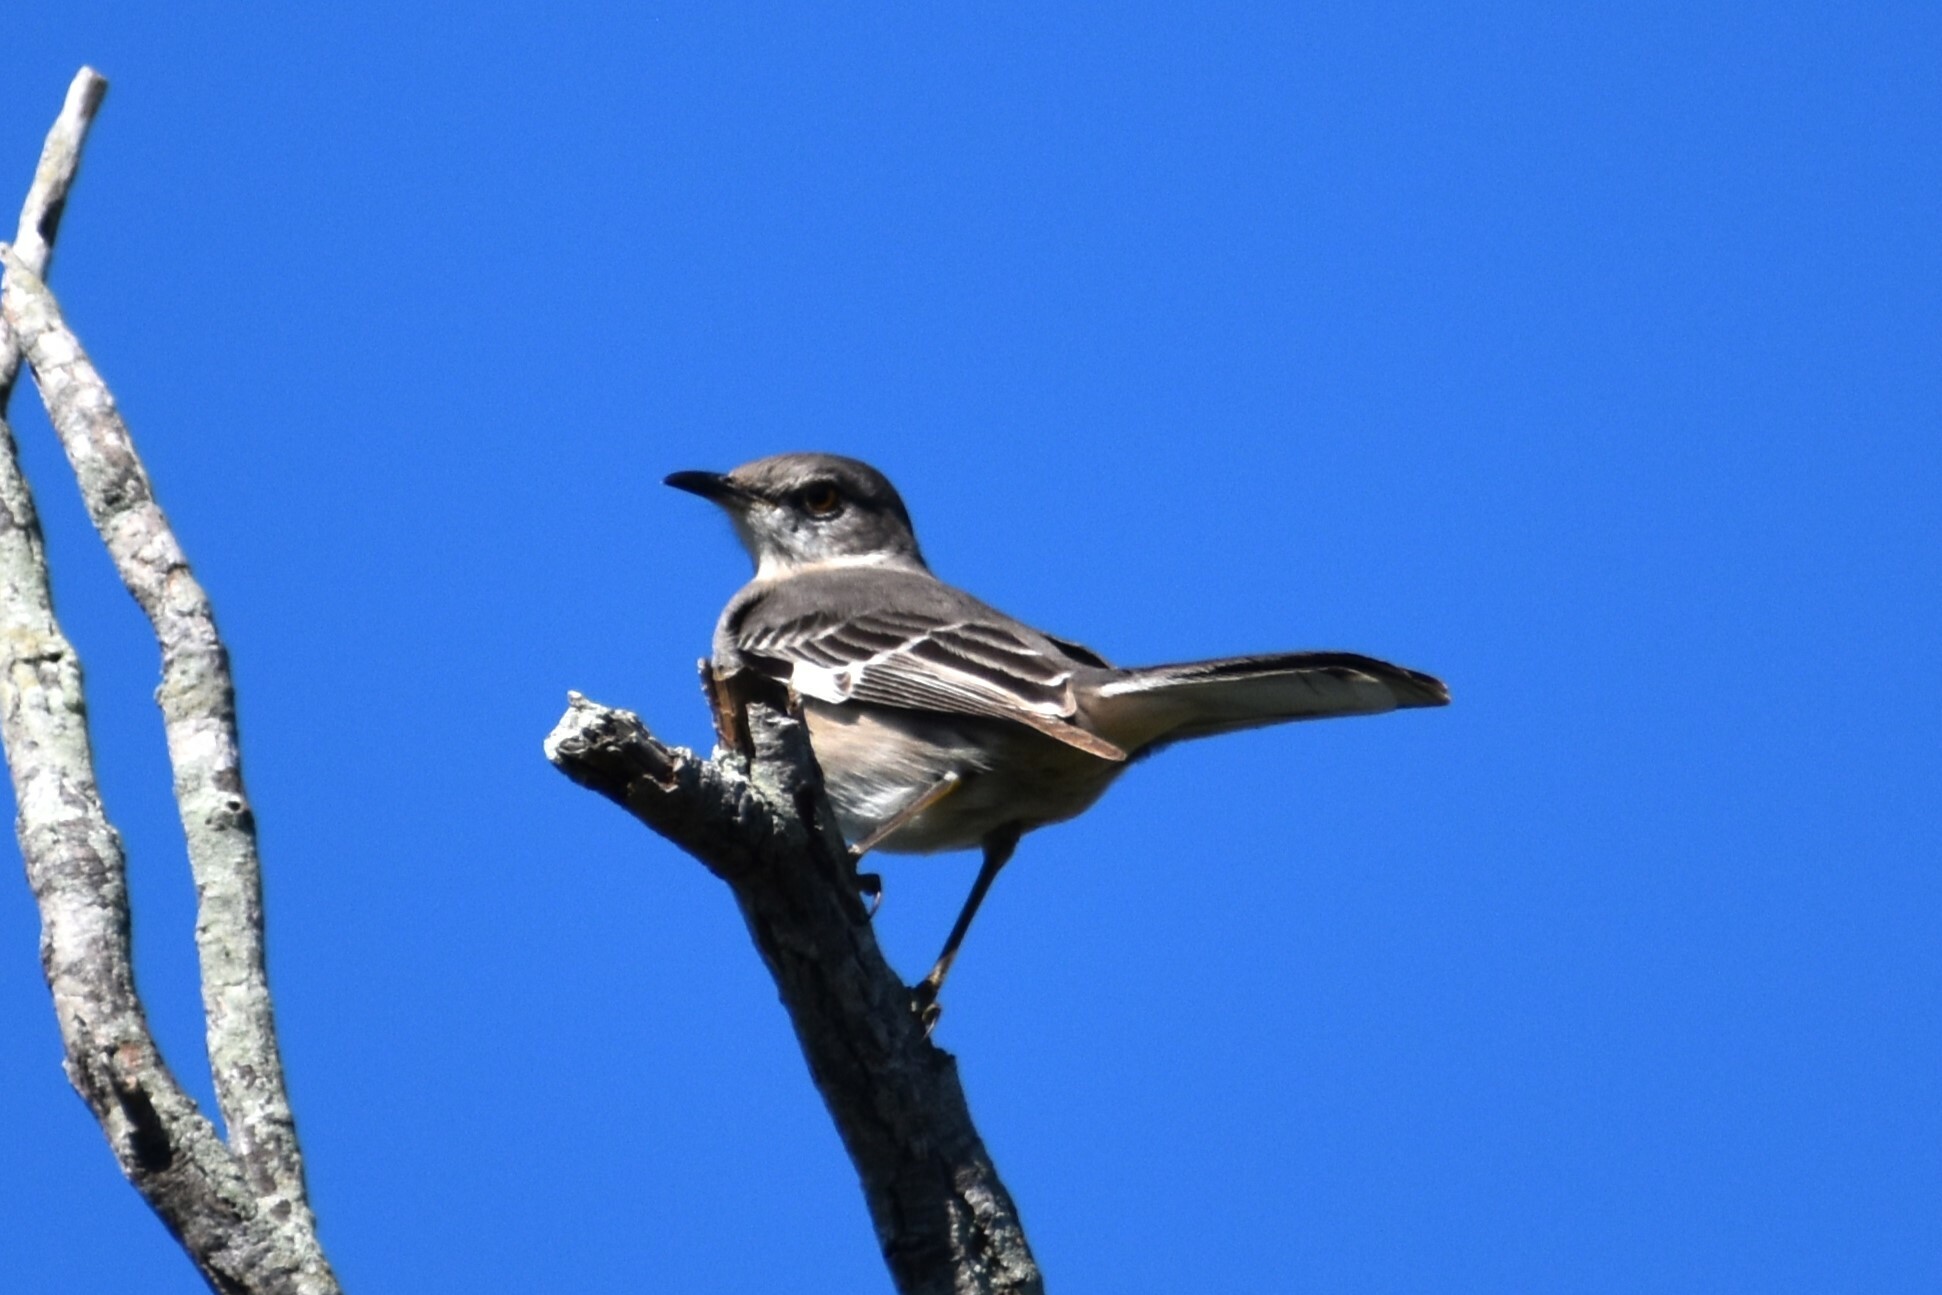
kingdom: Animalia
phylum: Chordata
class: Aves
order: Passeriformes
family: Mimidae
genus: Mimus
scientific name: Mimus polyglottos
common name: Northern mockingbird
